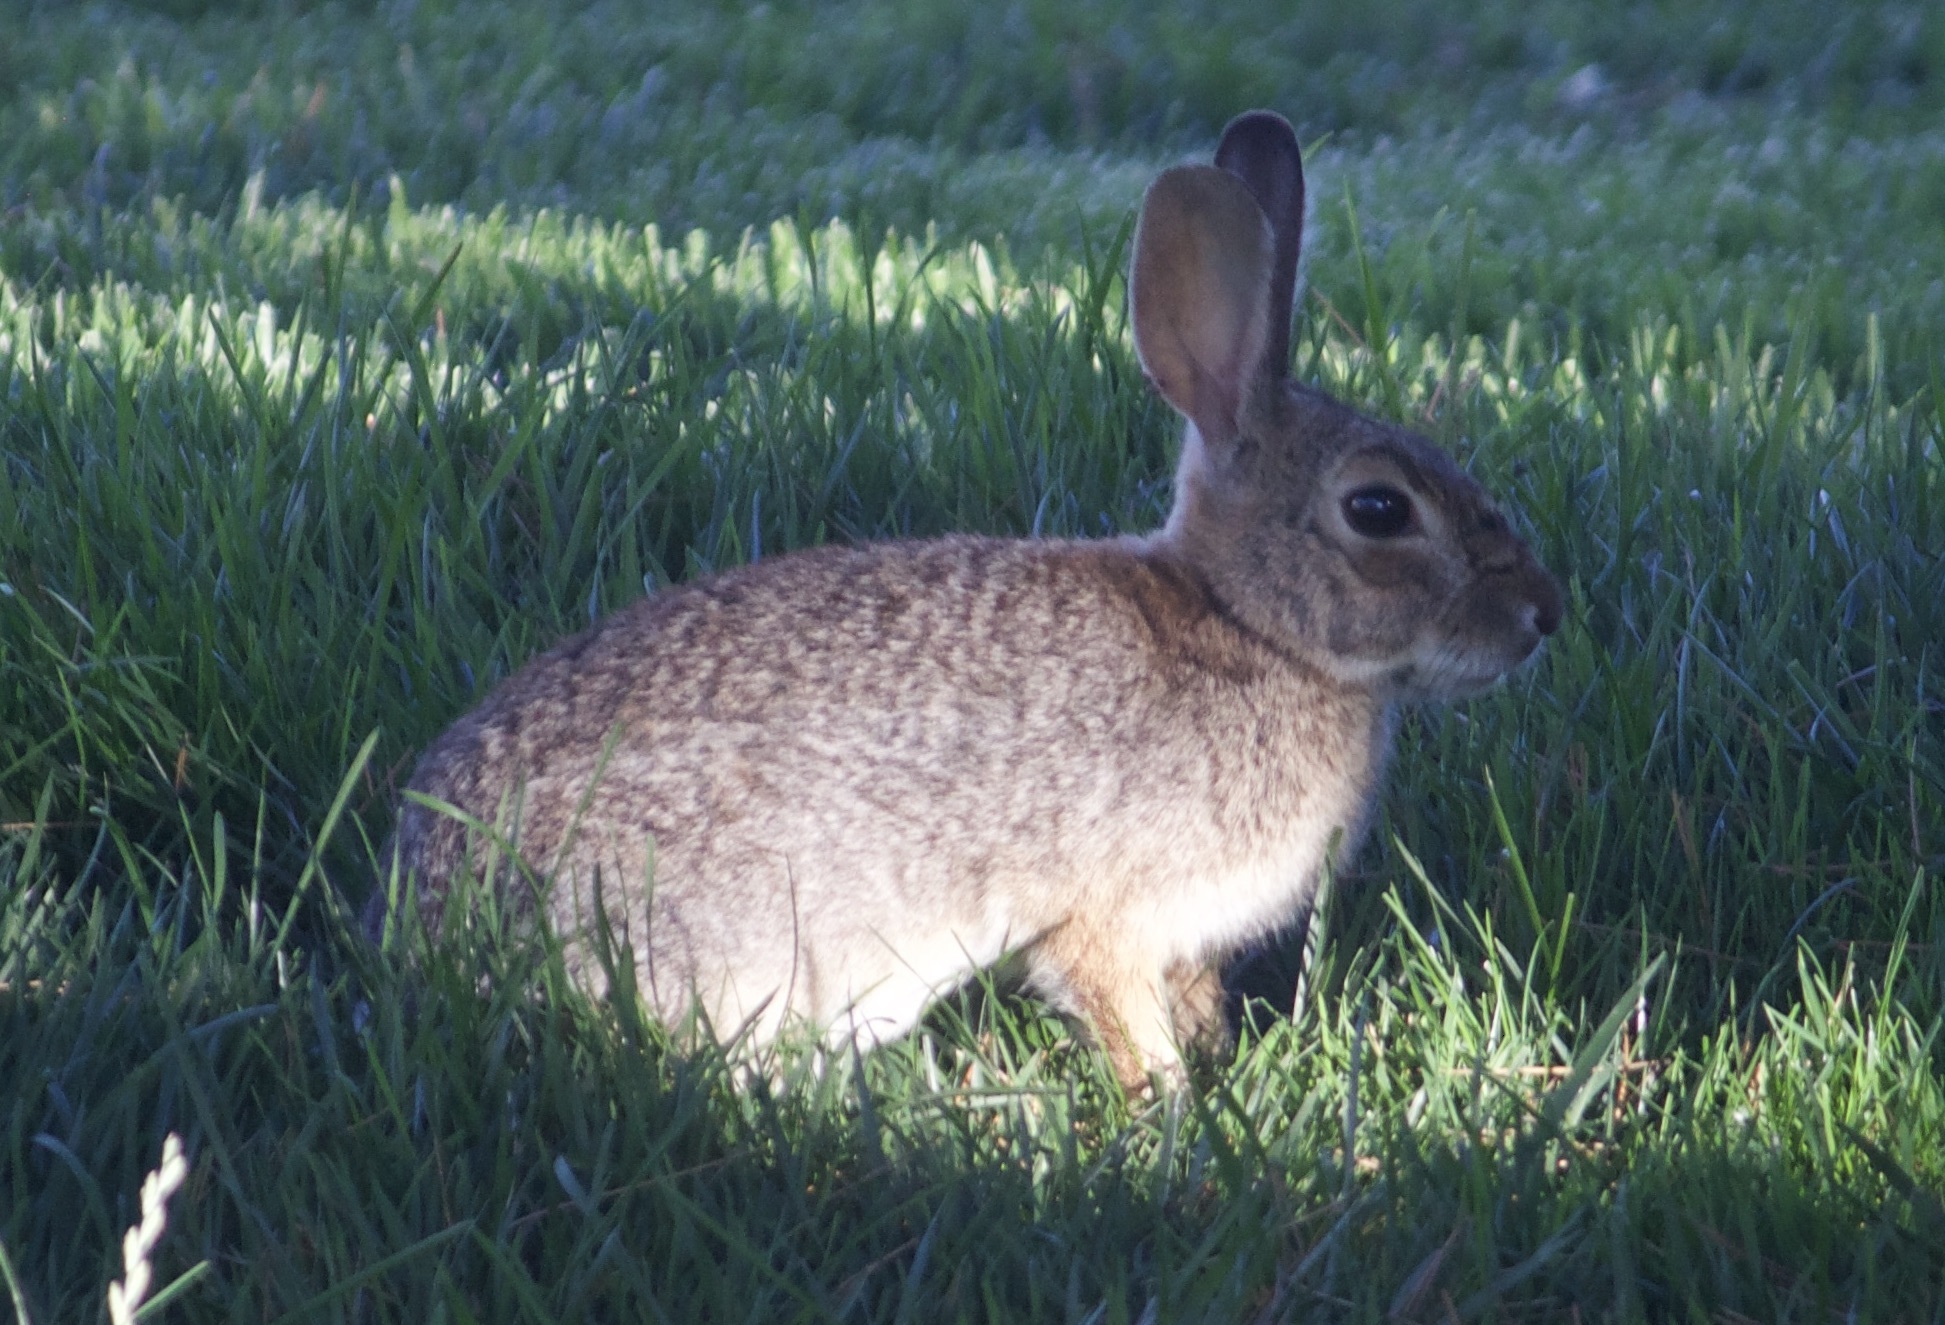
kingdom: Animalia
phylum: Chordata
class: Mammalia
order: Lagomorpha
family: Leporidae
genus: Sylvilagus
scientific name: Sylvilagus audubonii
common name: Desert cottontail
